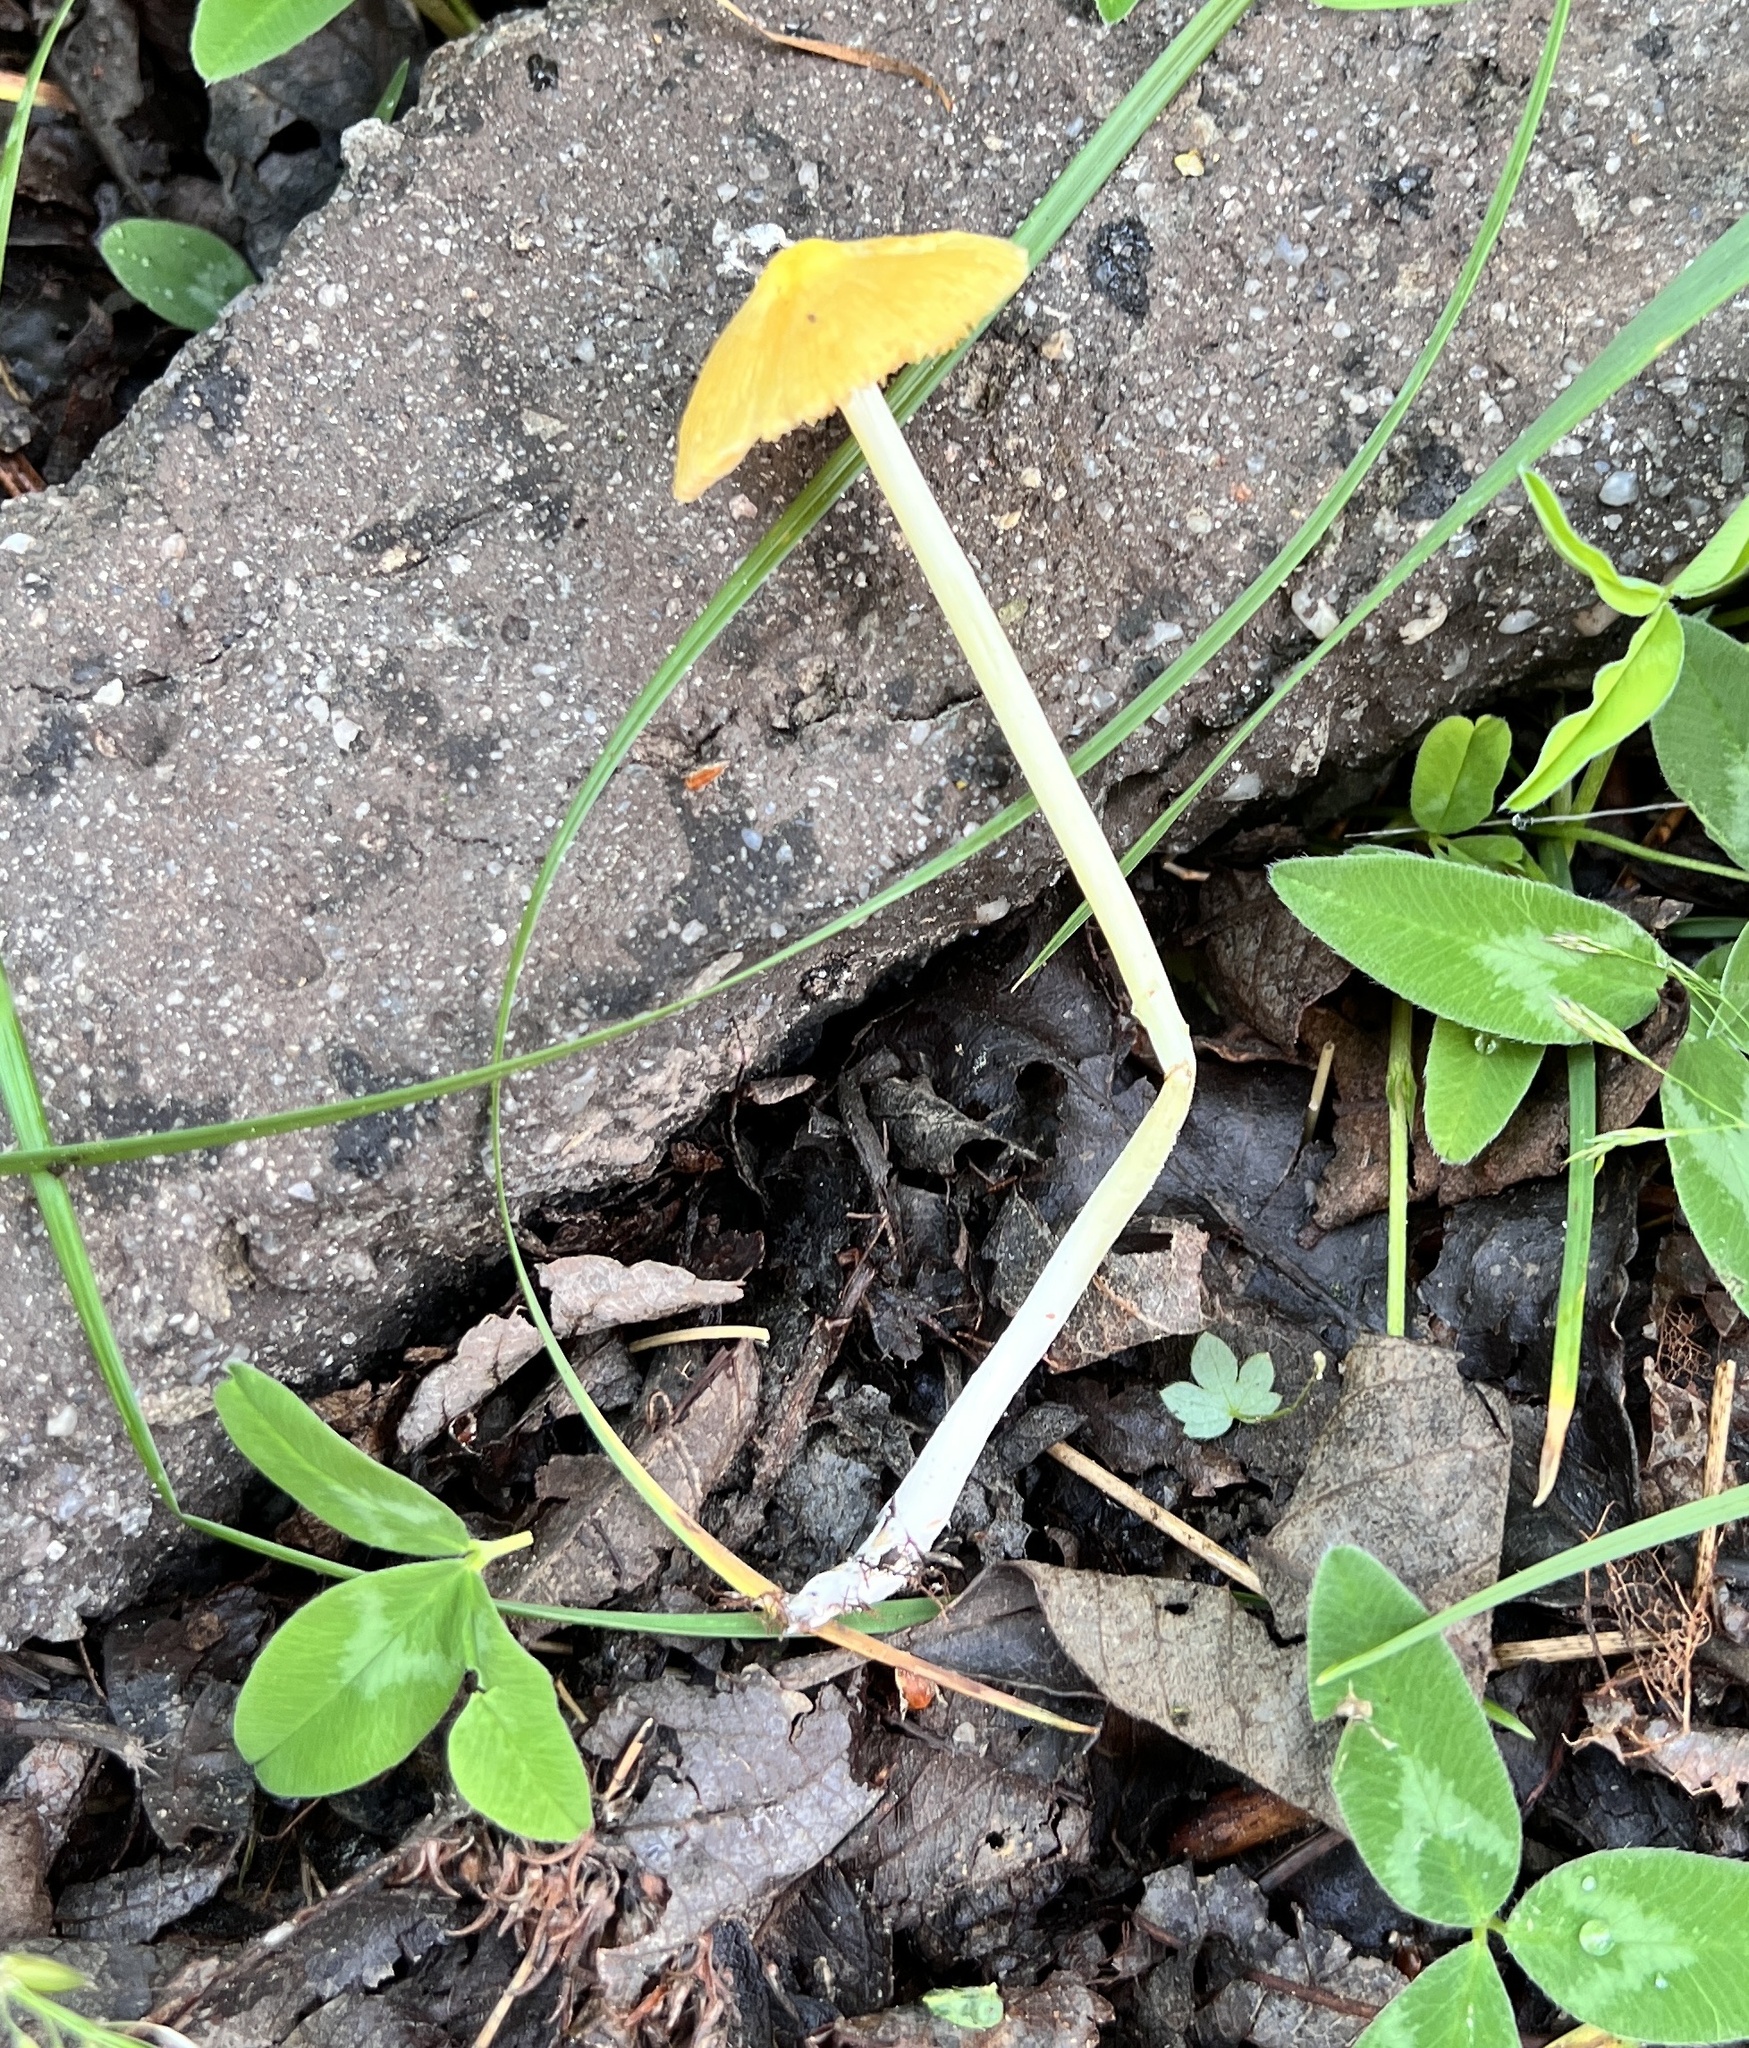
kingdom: Fungi
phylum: Basidiomycota
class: Agaricomycetes
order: Agaricales
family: Bolbitiaceae
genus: Bolbitius
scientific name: Bolbitius titubans
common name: Yellow fieldcap
